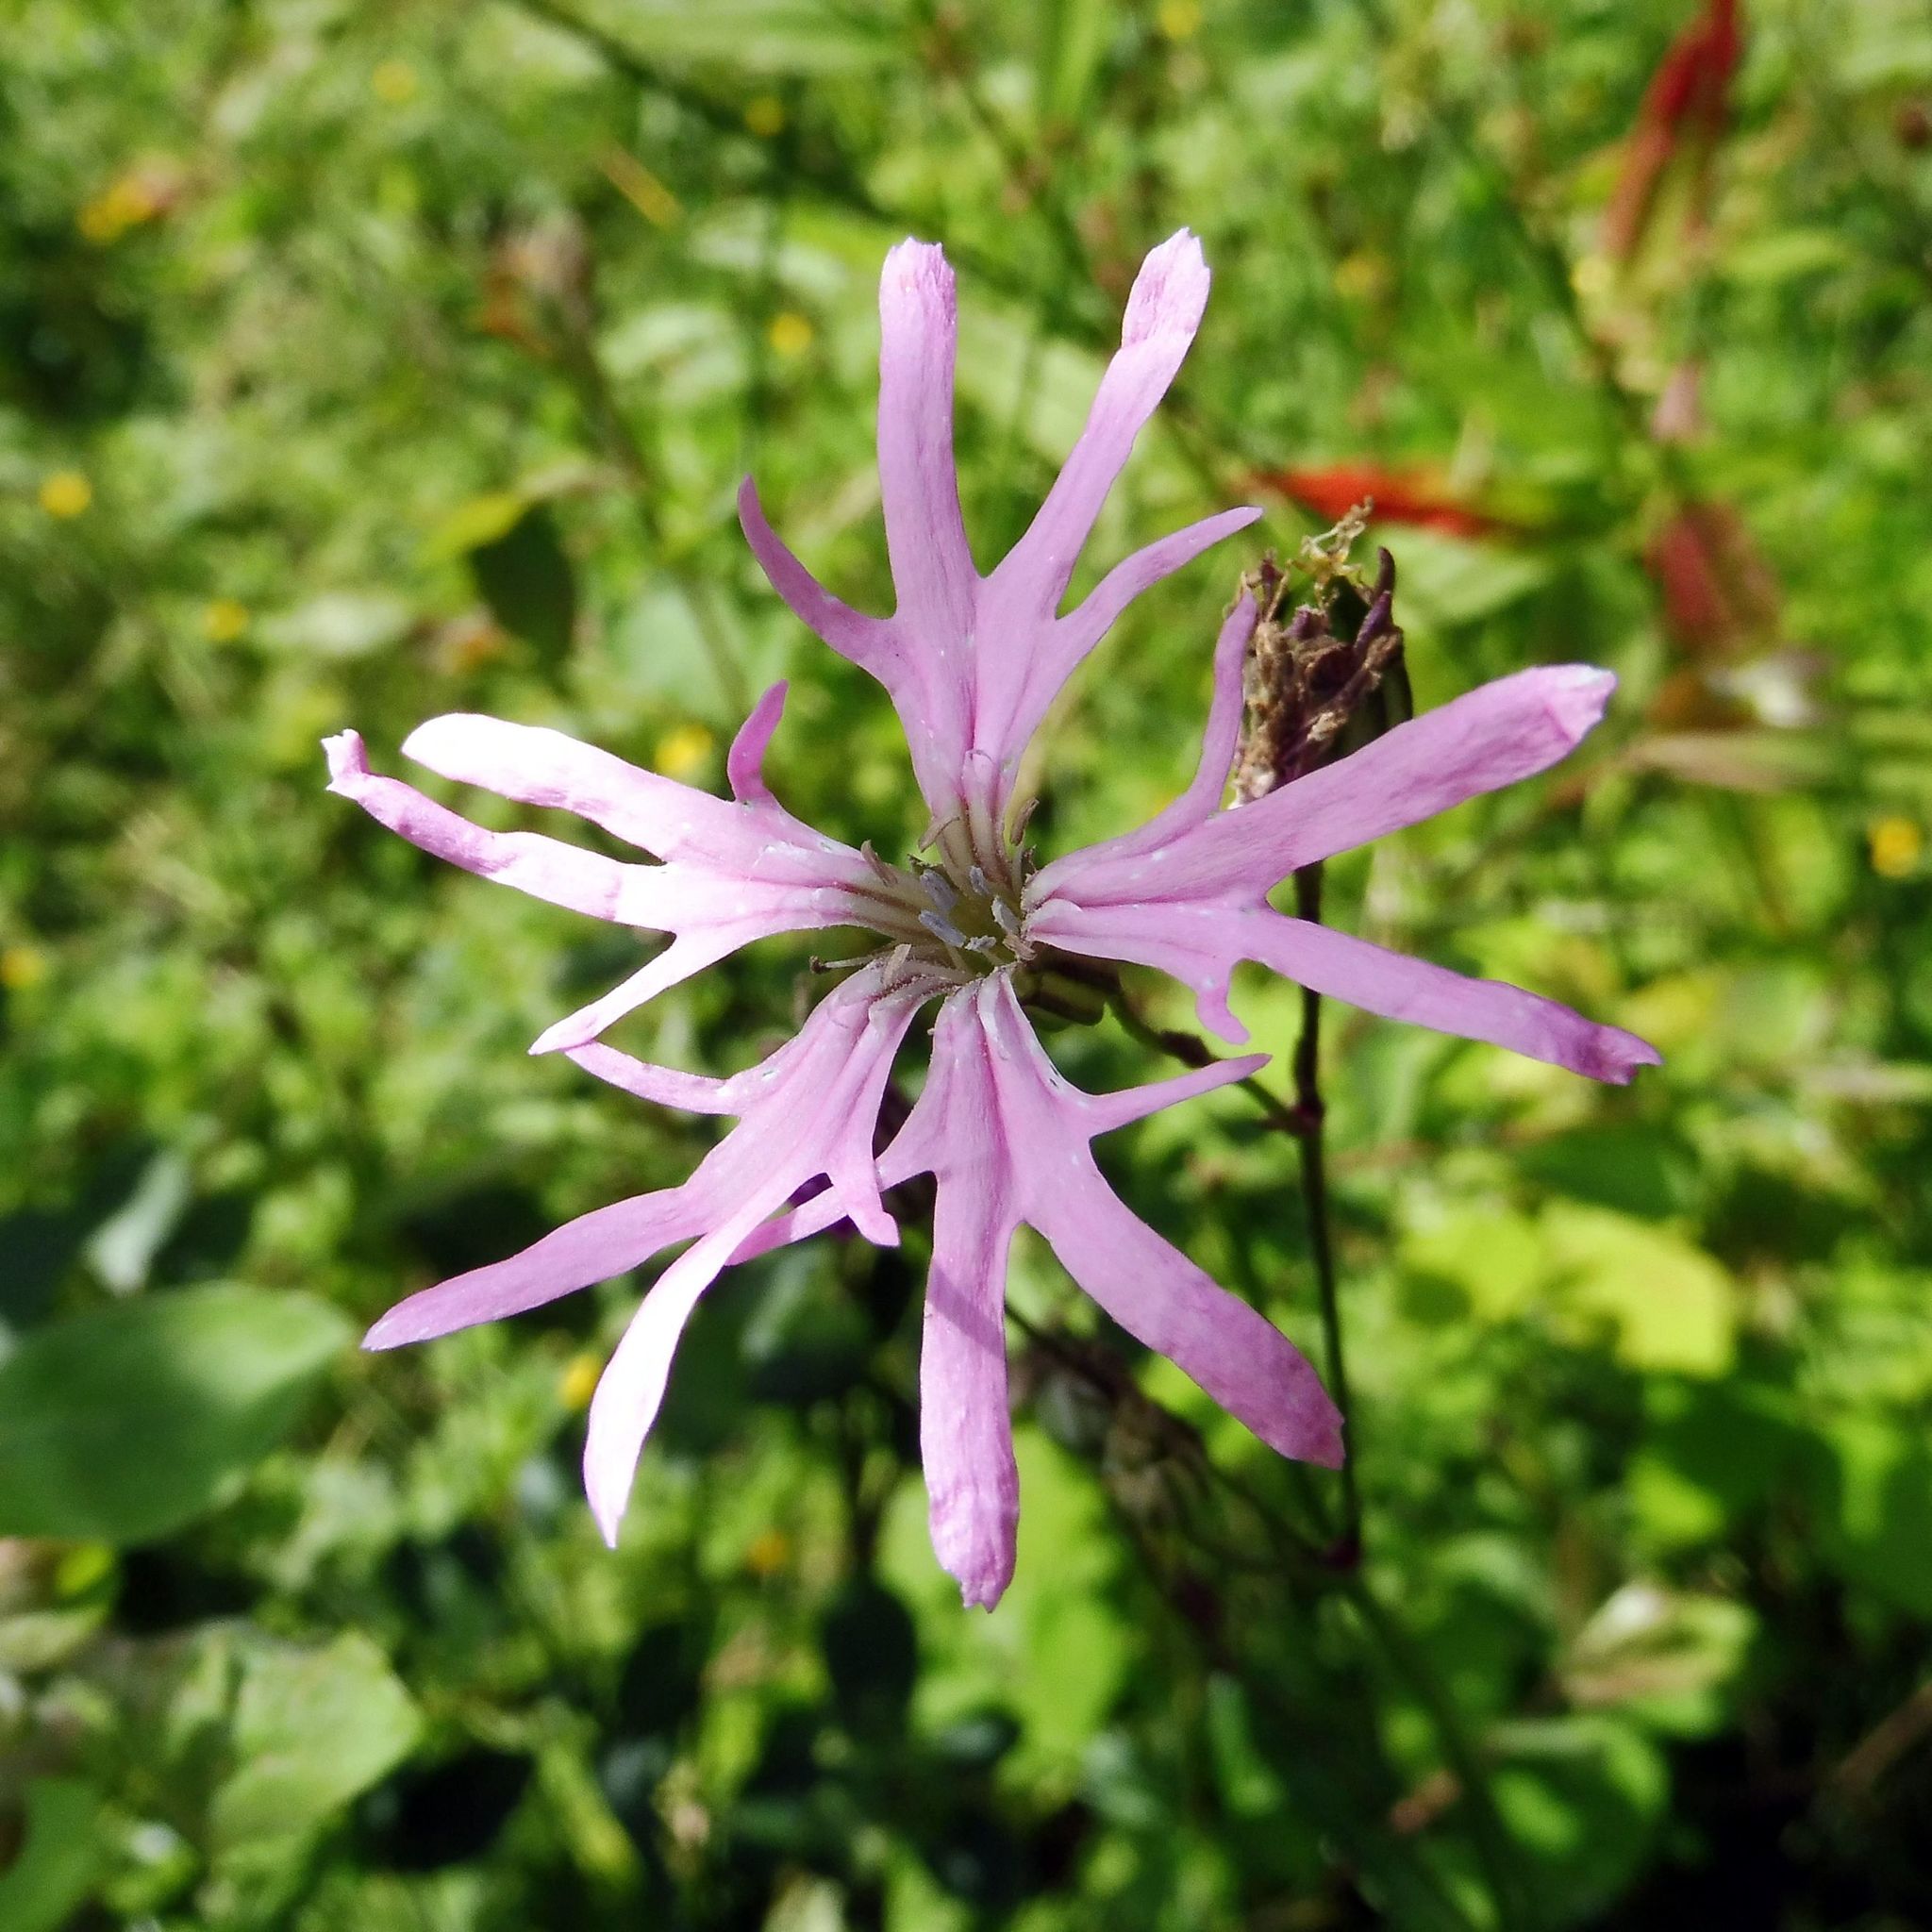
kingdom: Plantae
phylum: Tracheophyta
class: Magnoliopsida
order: Caryophyllales
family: Caryophyllaceae
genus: Silene
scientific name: Silene flos-cuculi
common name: Ragged-robin
